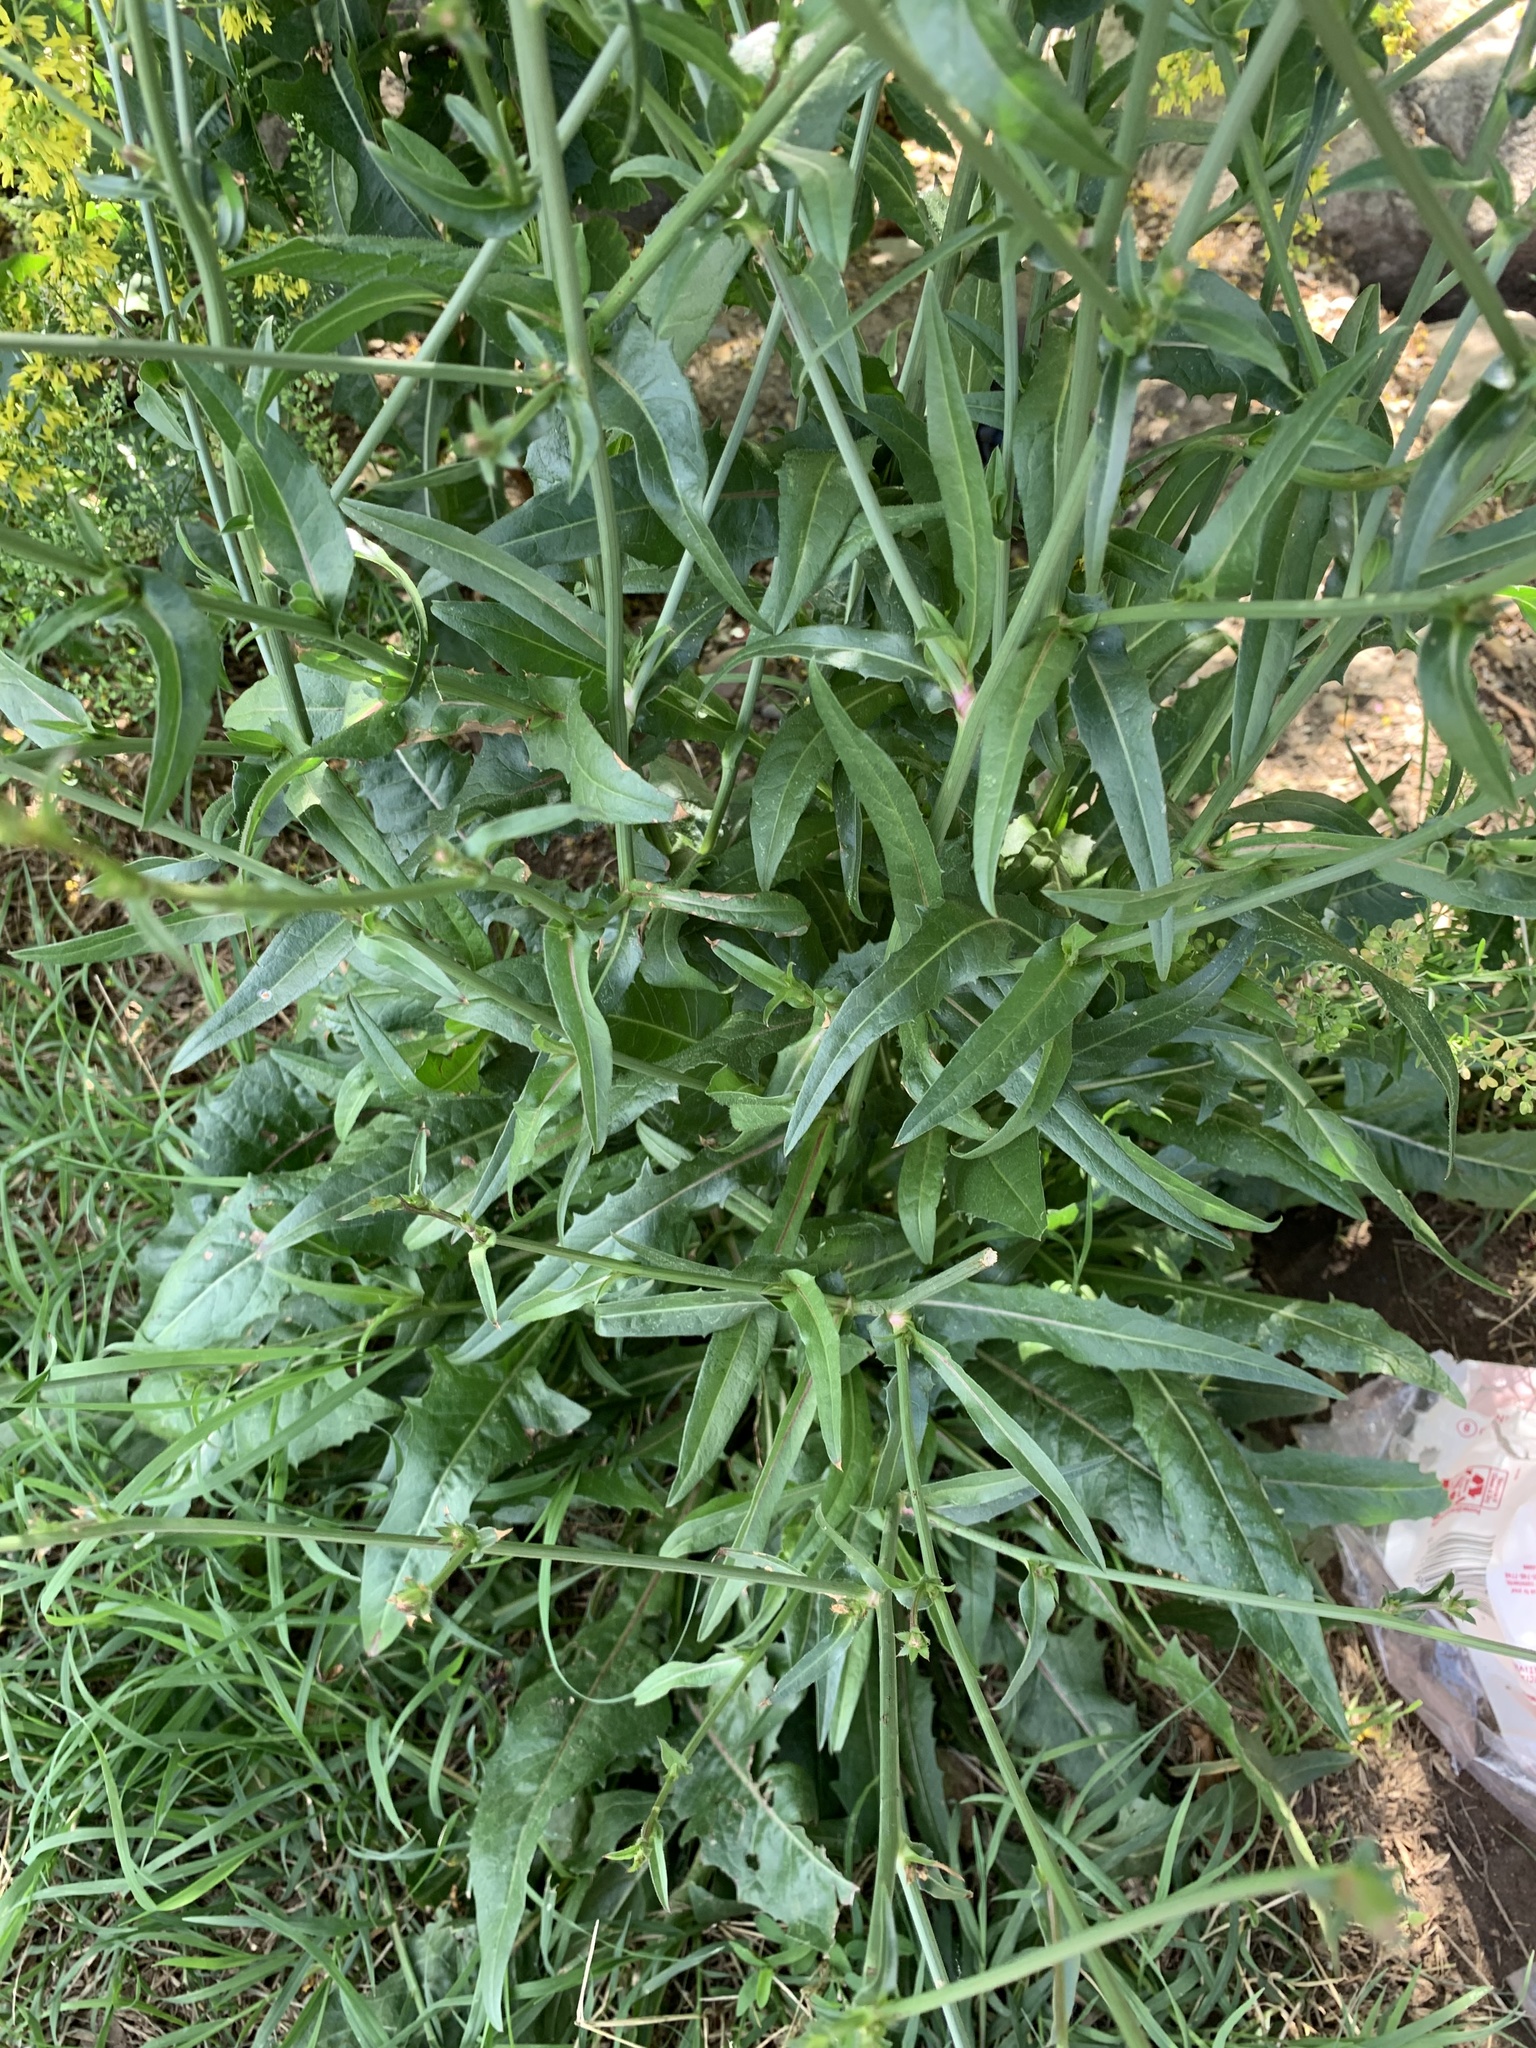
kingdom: Plantae
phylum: Tracheophyta
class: Magnoliopsida
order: Asterales
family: Asteraceae
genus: Cichorium
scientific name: Cichorium intybus
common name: Chicory
